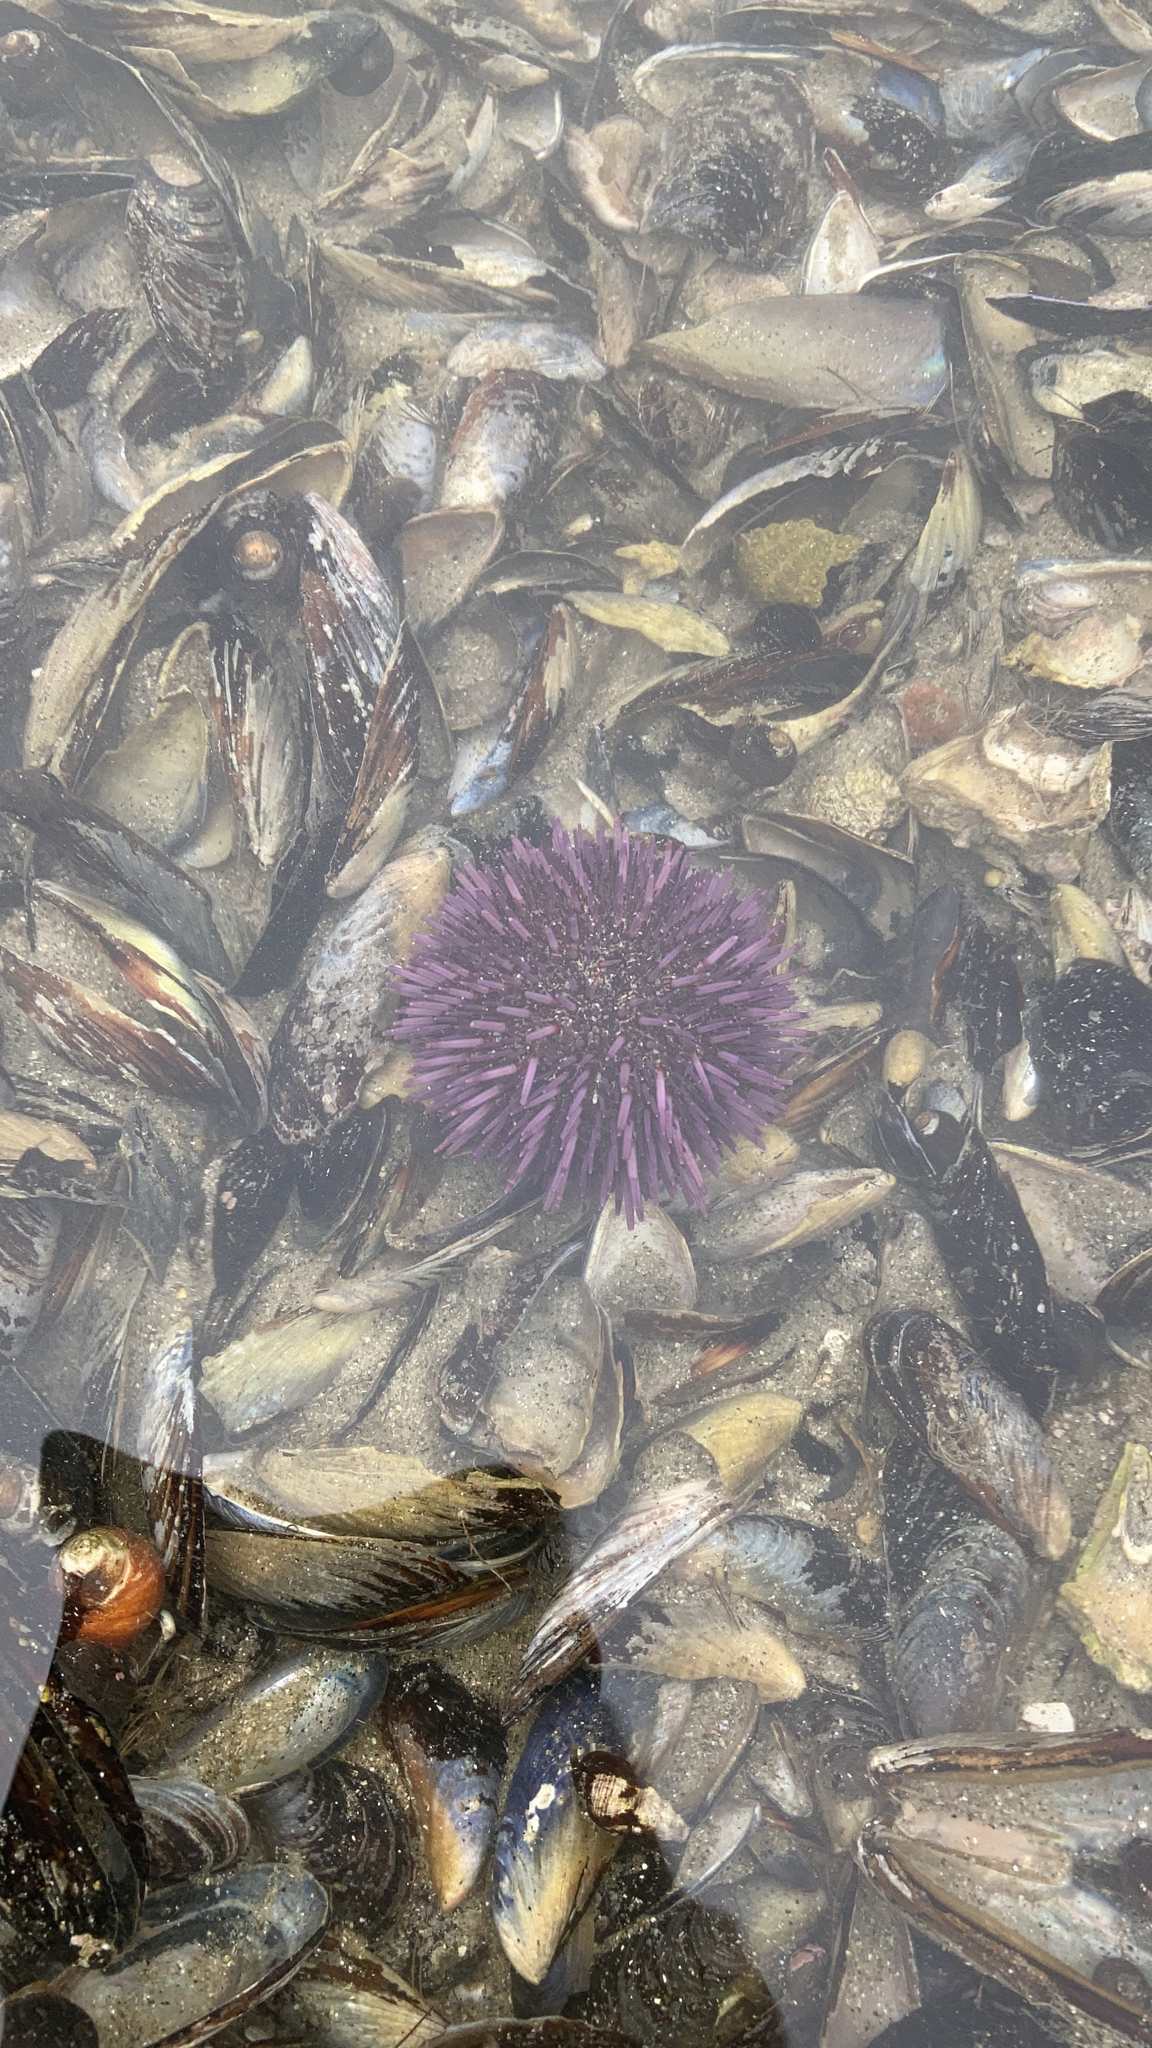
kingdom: Animalia
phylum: Echinodermata
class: Echinoidea
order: Camarodonta
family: Strongylocentrotidae
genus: Strongylocentrotus
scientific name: Strongylocentrotus purpuratus
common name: Purple sea urchin
